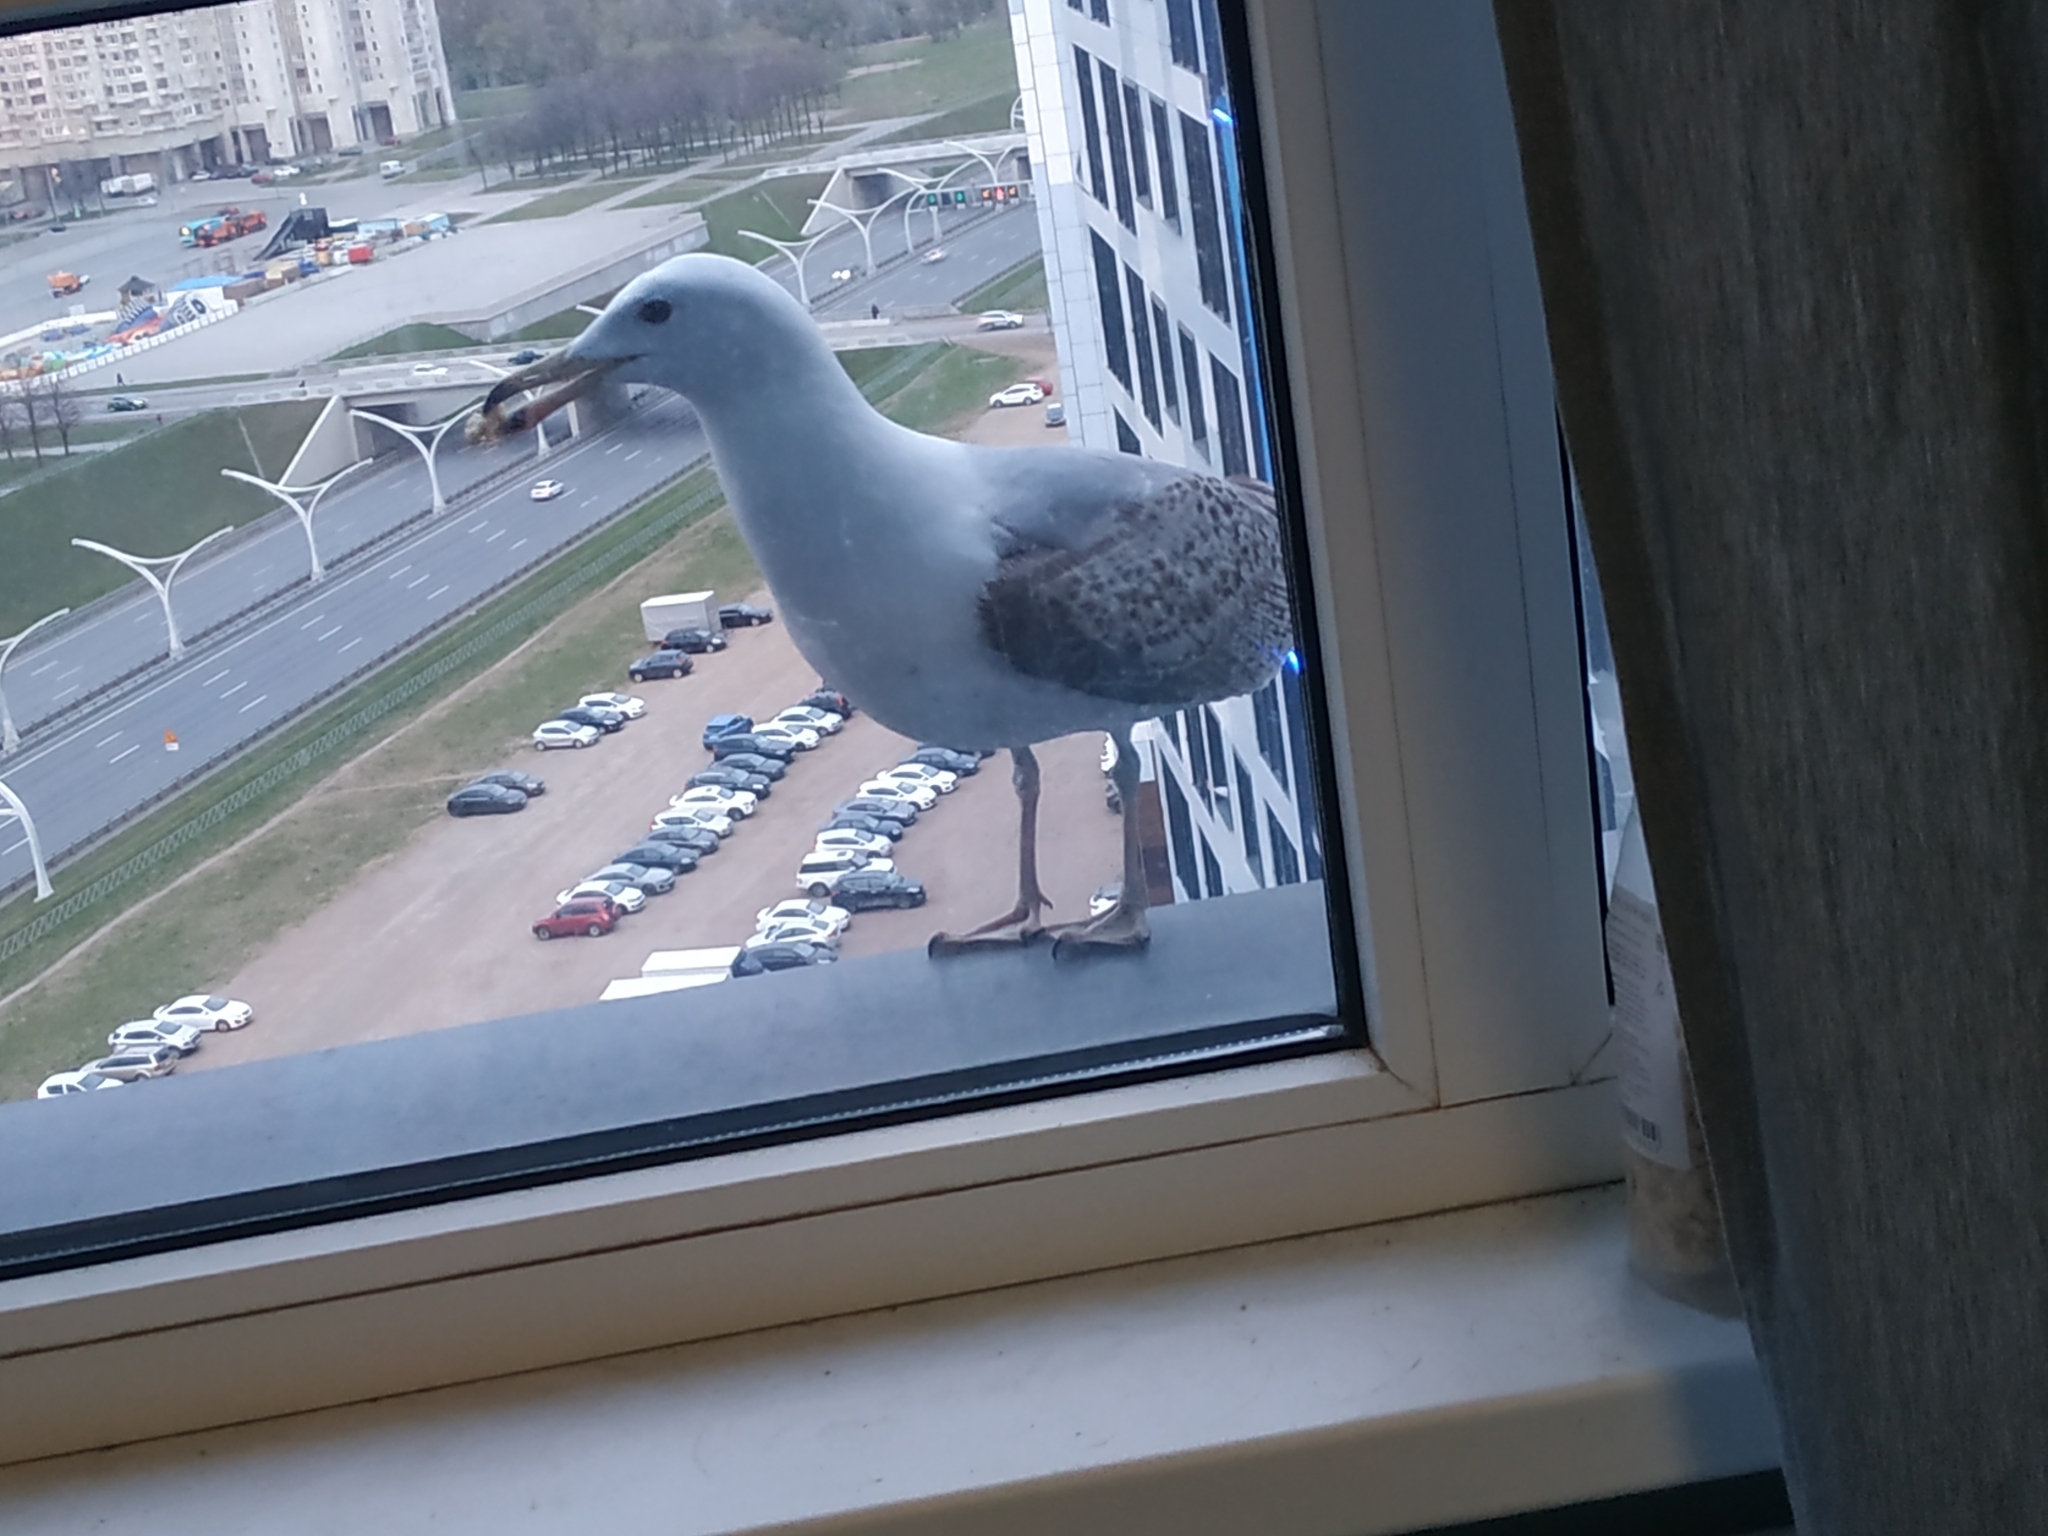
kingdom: Animalia
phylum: Chordata
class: Aves
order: Charadriiformes
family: Laridae
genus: Larus
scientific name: Larus argentatus
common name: Herring gull
